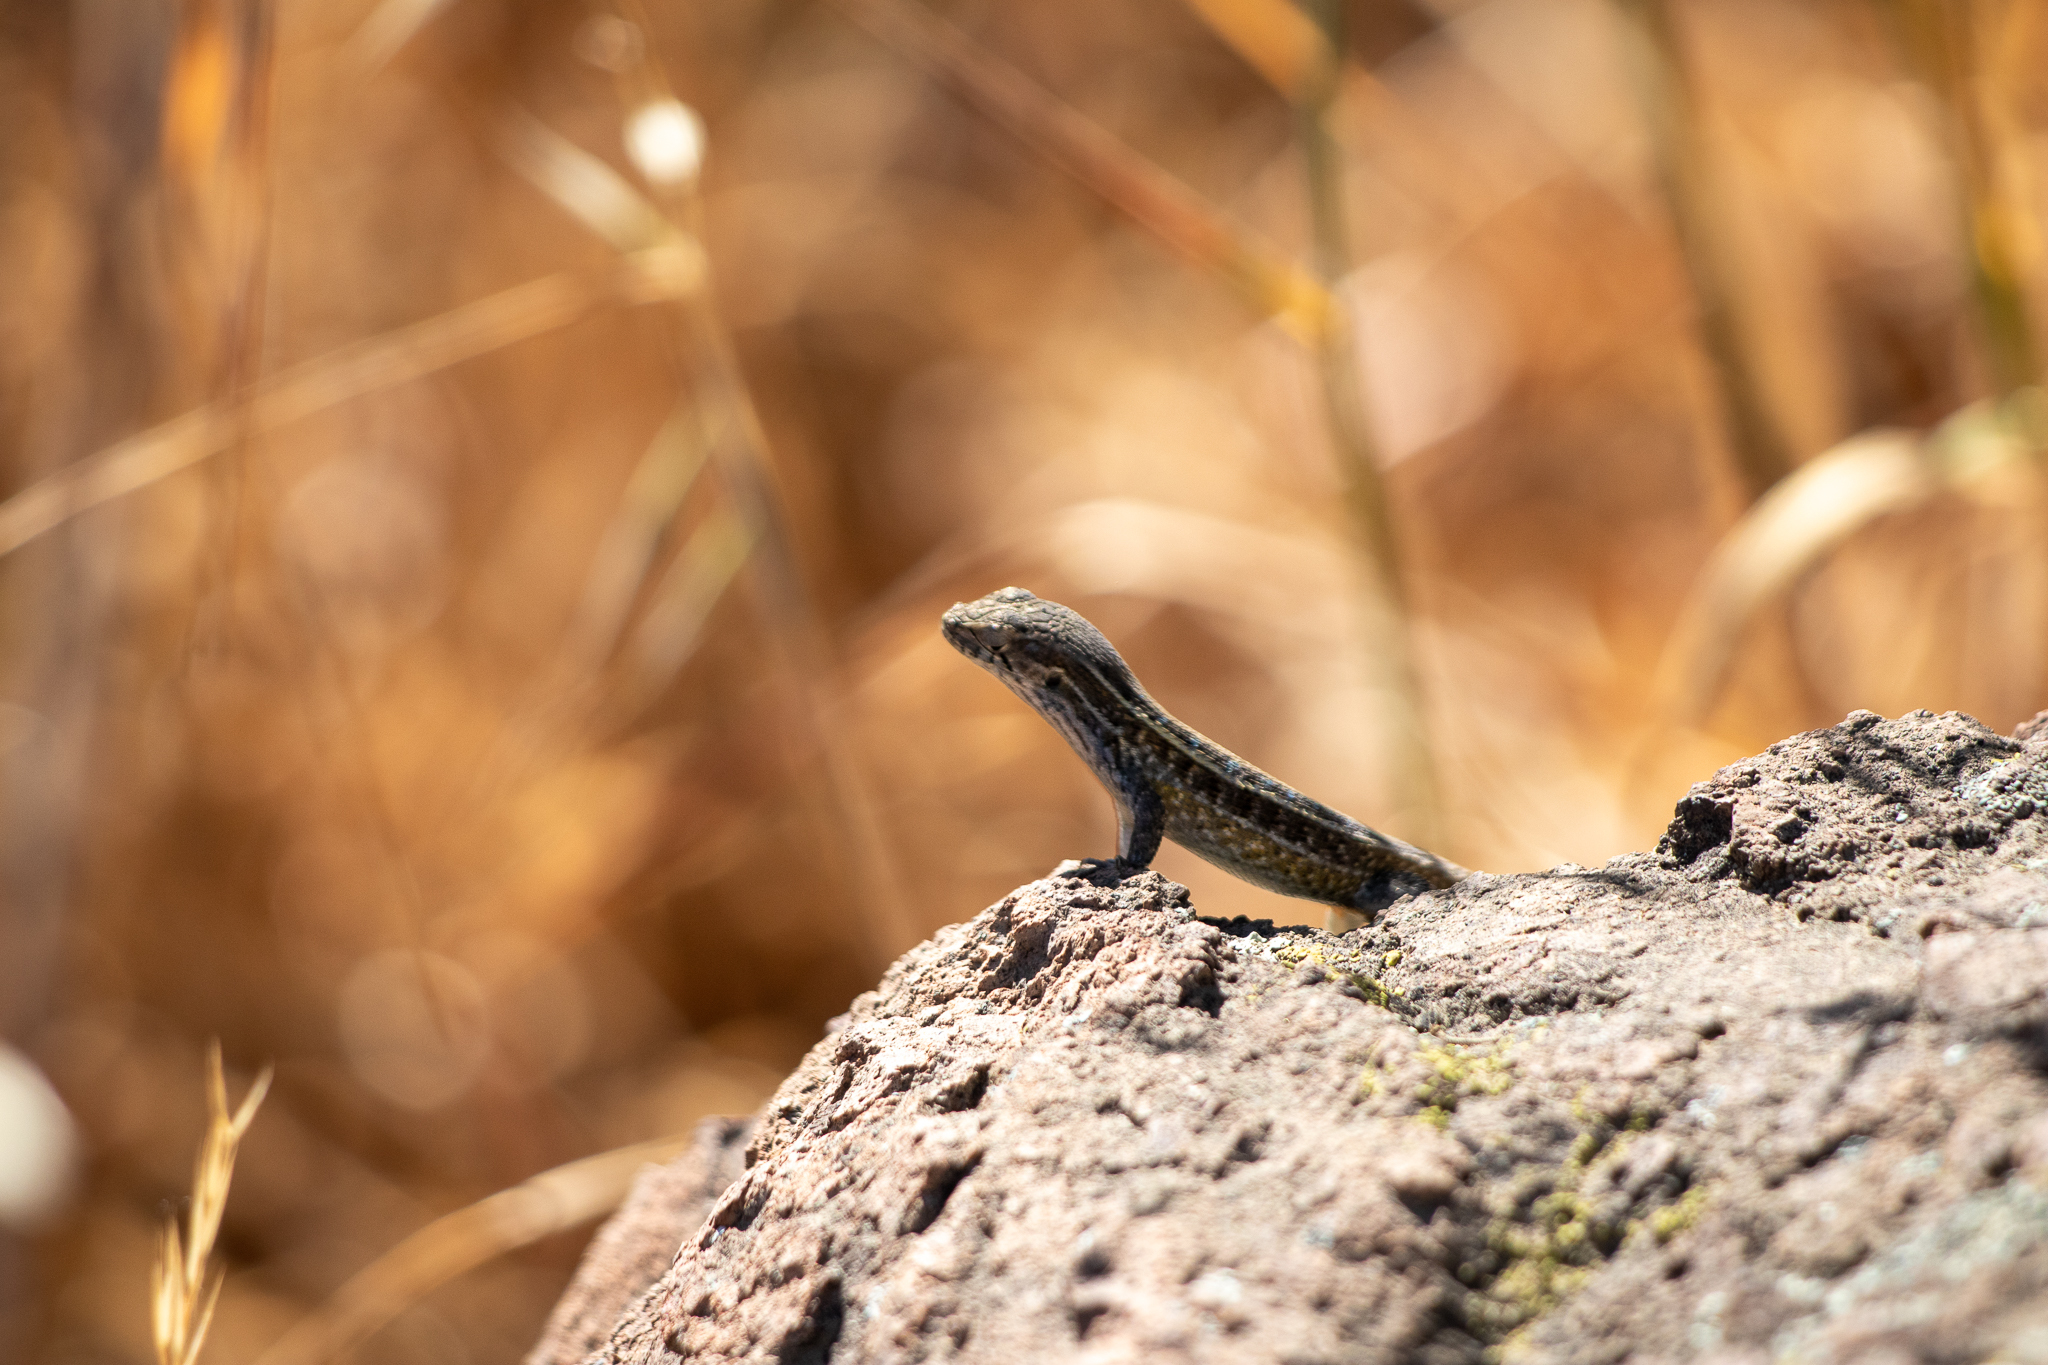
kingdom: Animalia
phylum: Chordata
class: Squamata
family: Liolaemidae
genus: Liolaemus
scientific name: Liolaemus lemniscatus
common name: Wreath tree iguana
